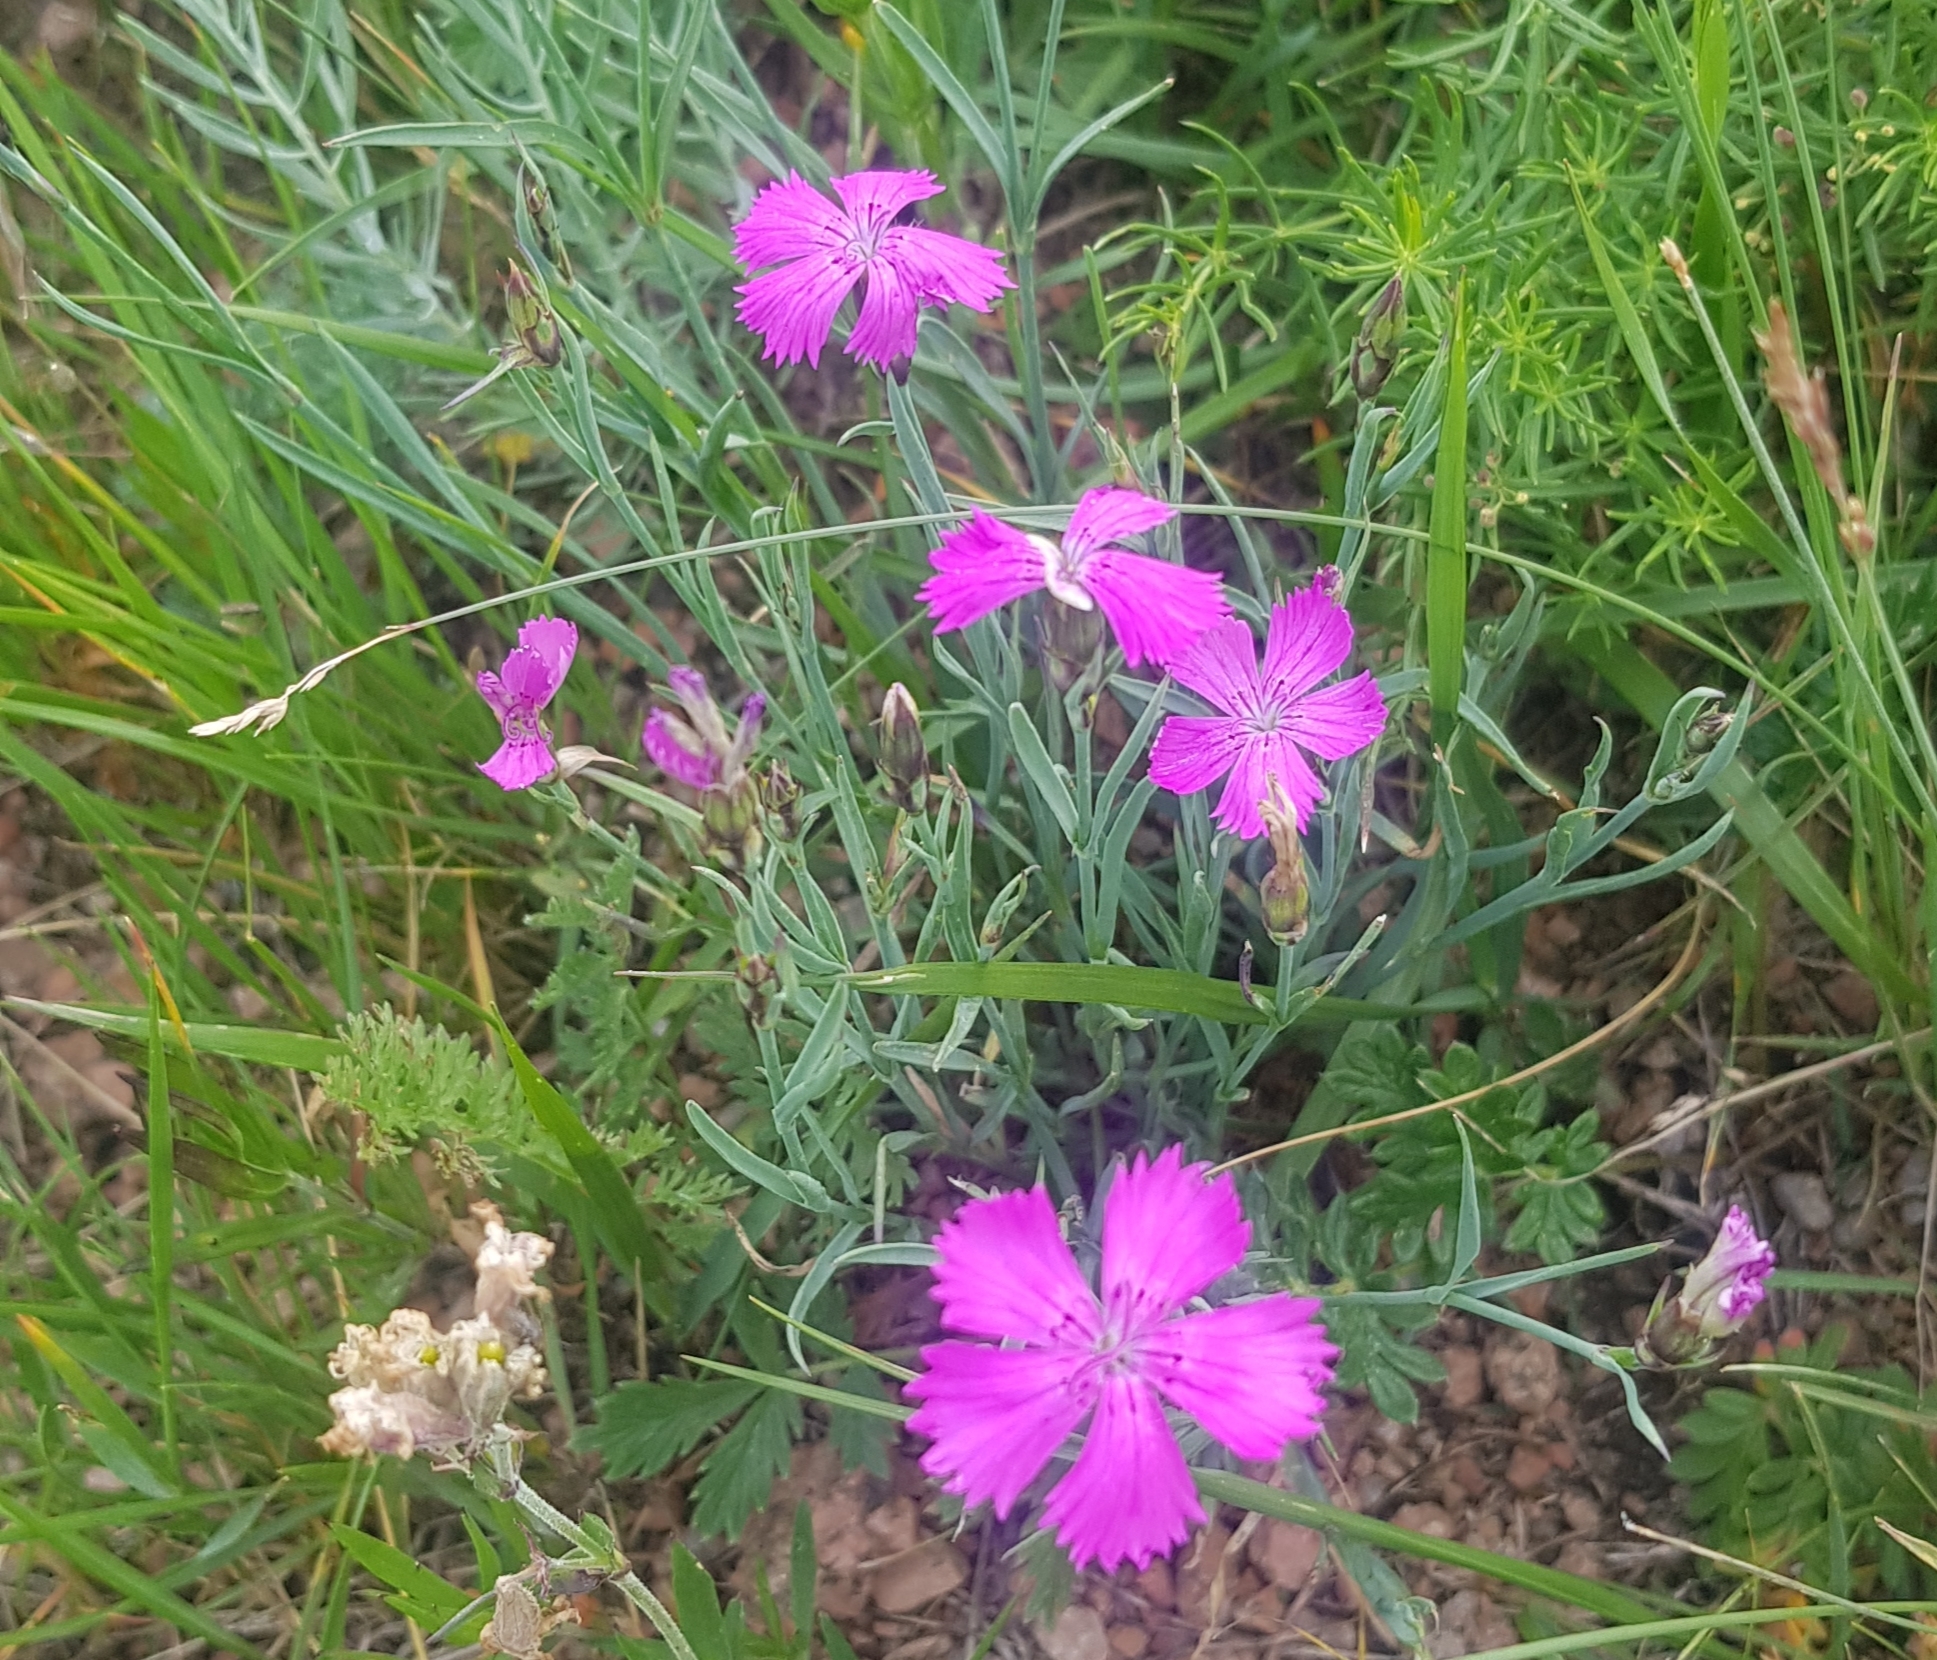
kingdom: Plantae
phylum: Tracheophyta
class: Magnoliopsida
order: Caryophyllales
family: Caryophyllaceae
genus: Dianthus
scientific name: Dianthus chinensis
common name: Rainbow pink
